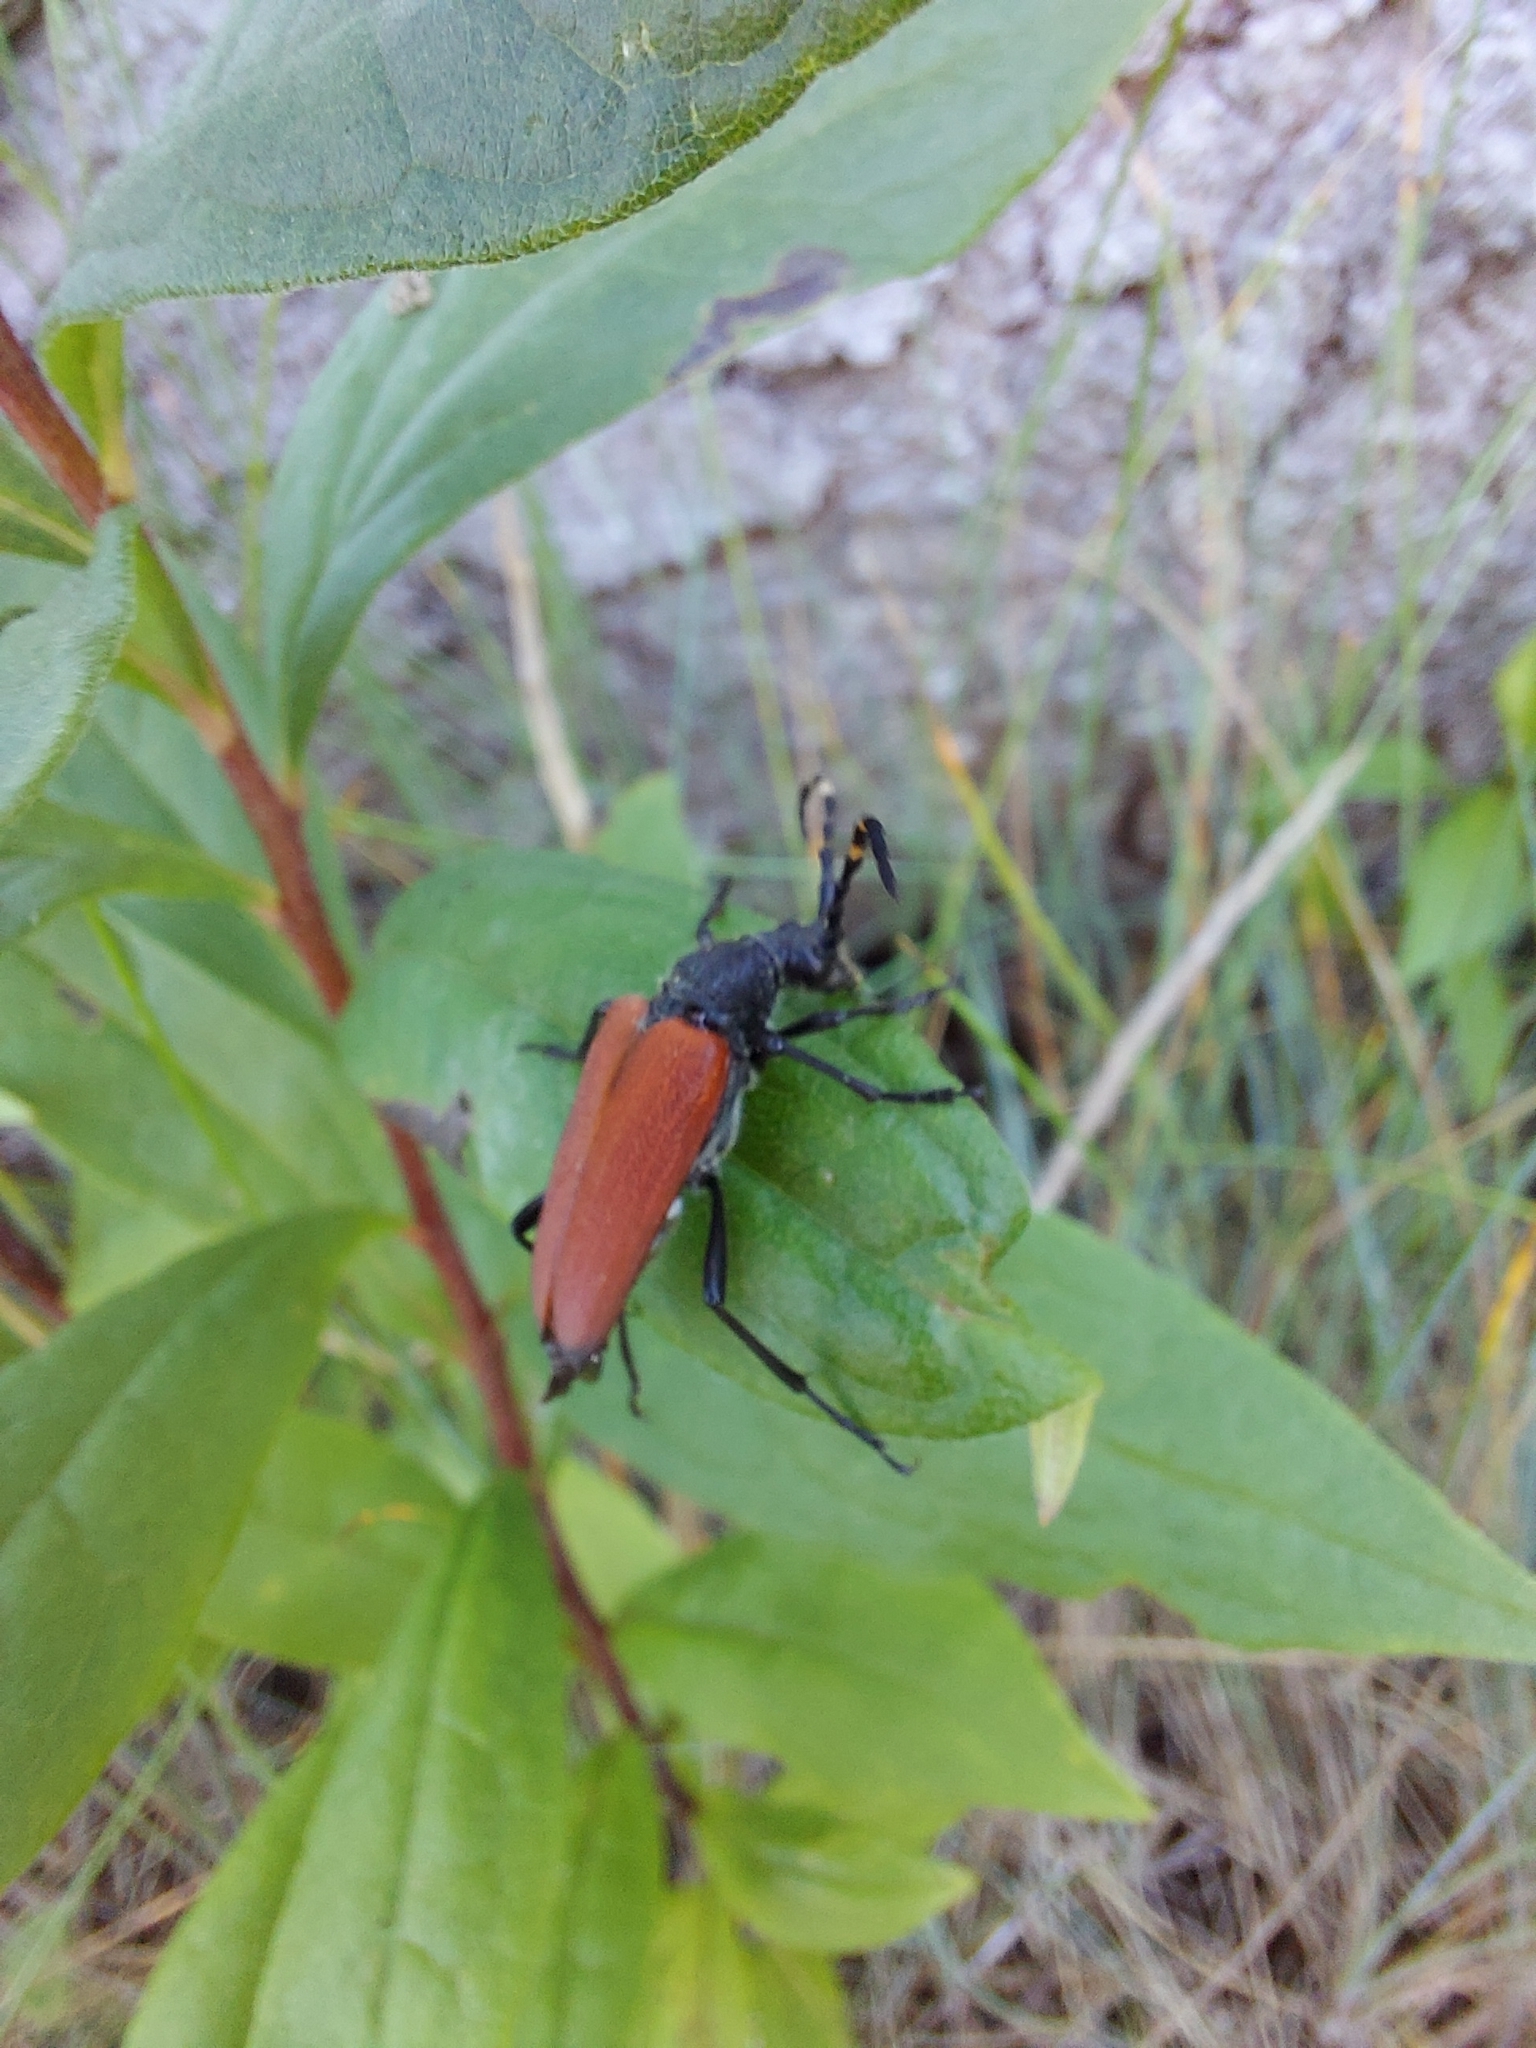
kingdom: Animalia
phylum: Arthropoda
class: Insecta
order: Coleoptera
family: Cerambycidae
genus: Stictoleptura
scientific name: Stictoleptura canadensis
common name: Red-shouldered pine borer
